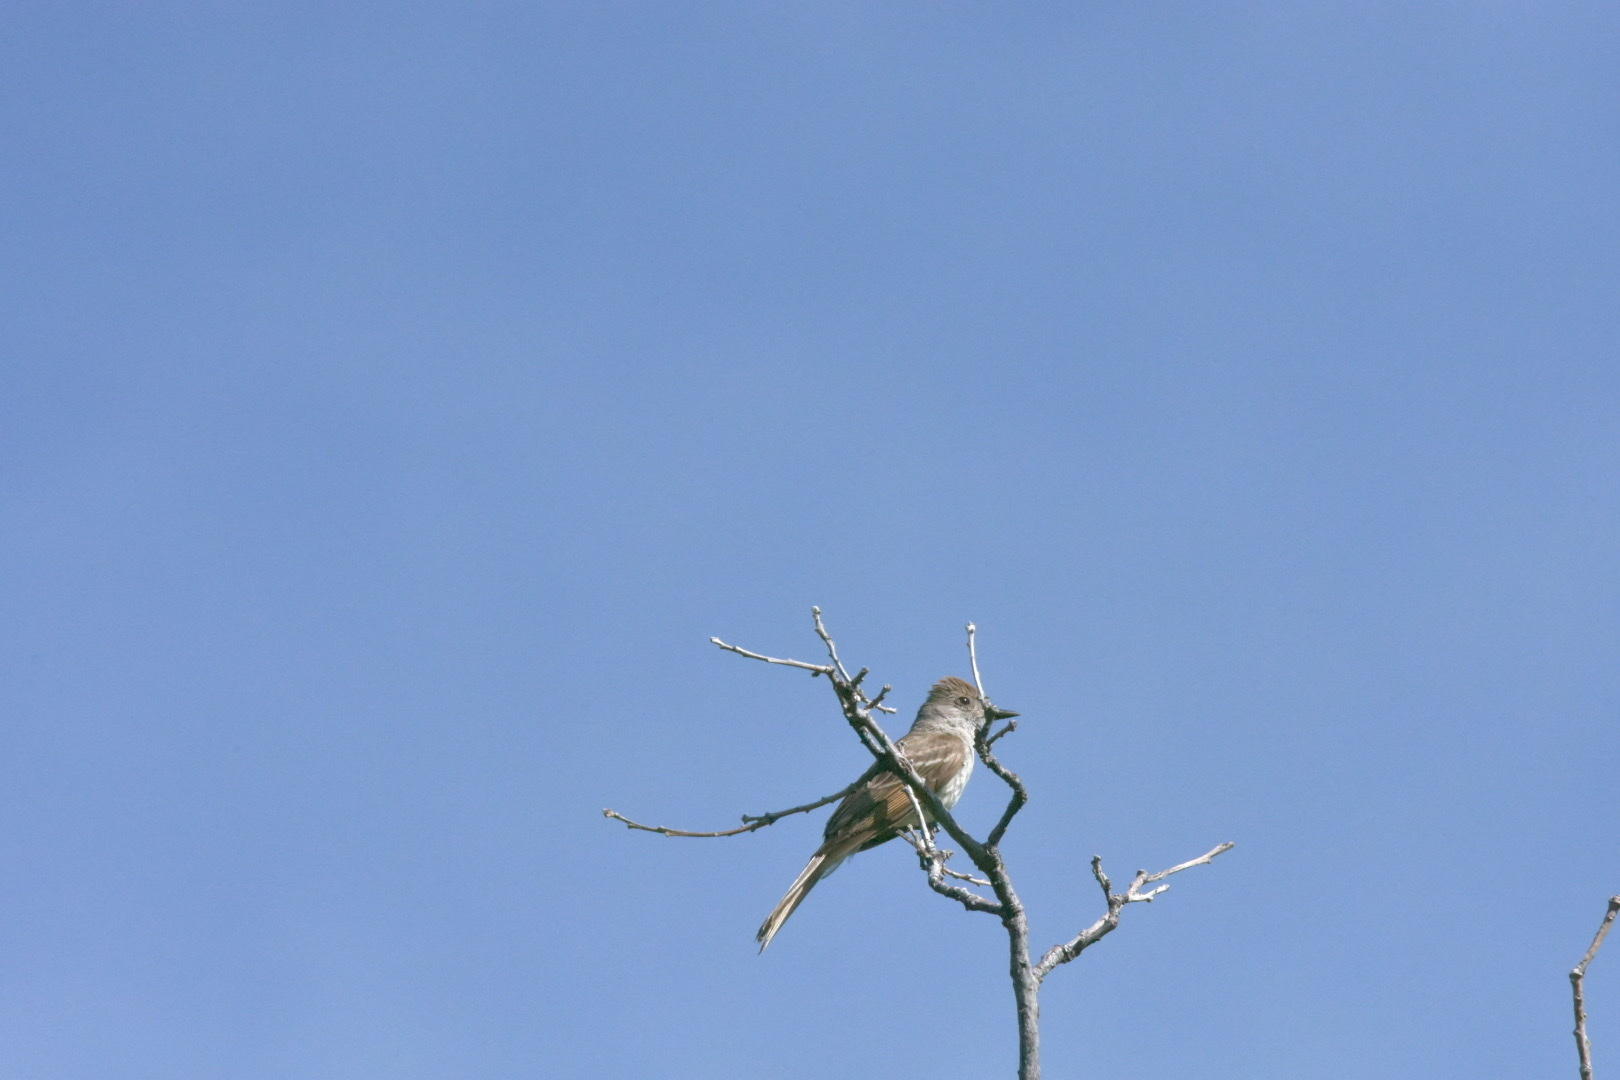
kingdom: Animalia
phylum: Chordata
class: Aves
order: Passeriformes
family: Tyrannidae
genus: Contopus
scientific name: Contopus sordidulus
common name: Western wood-pewee
